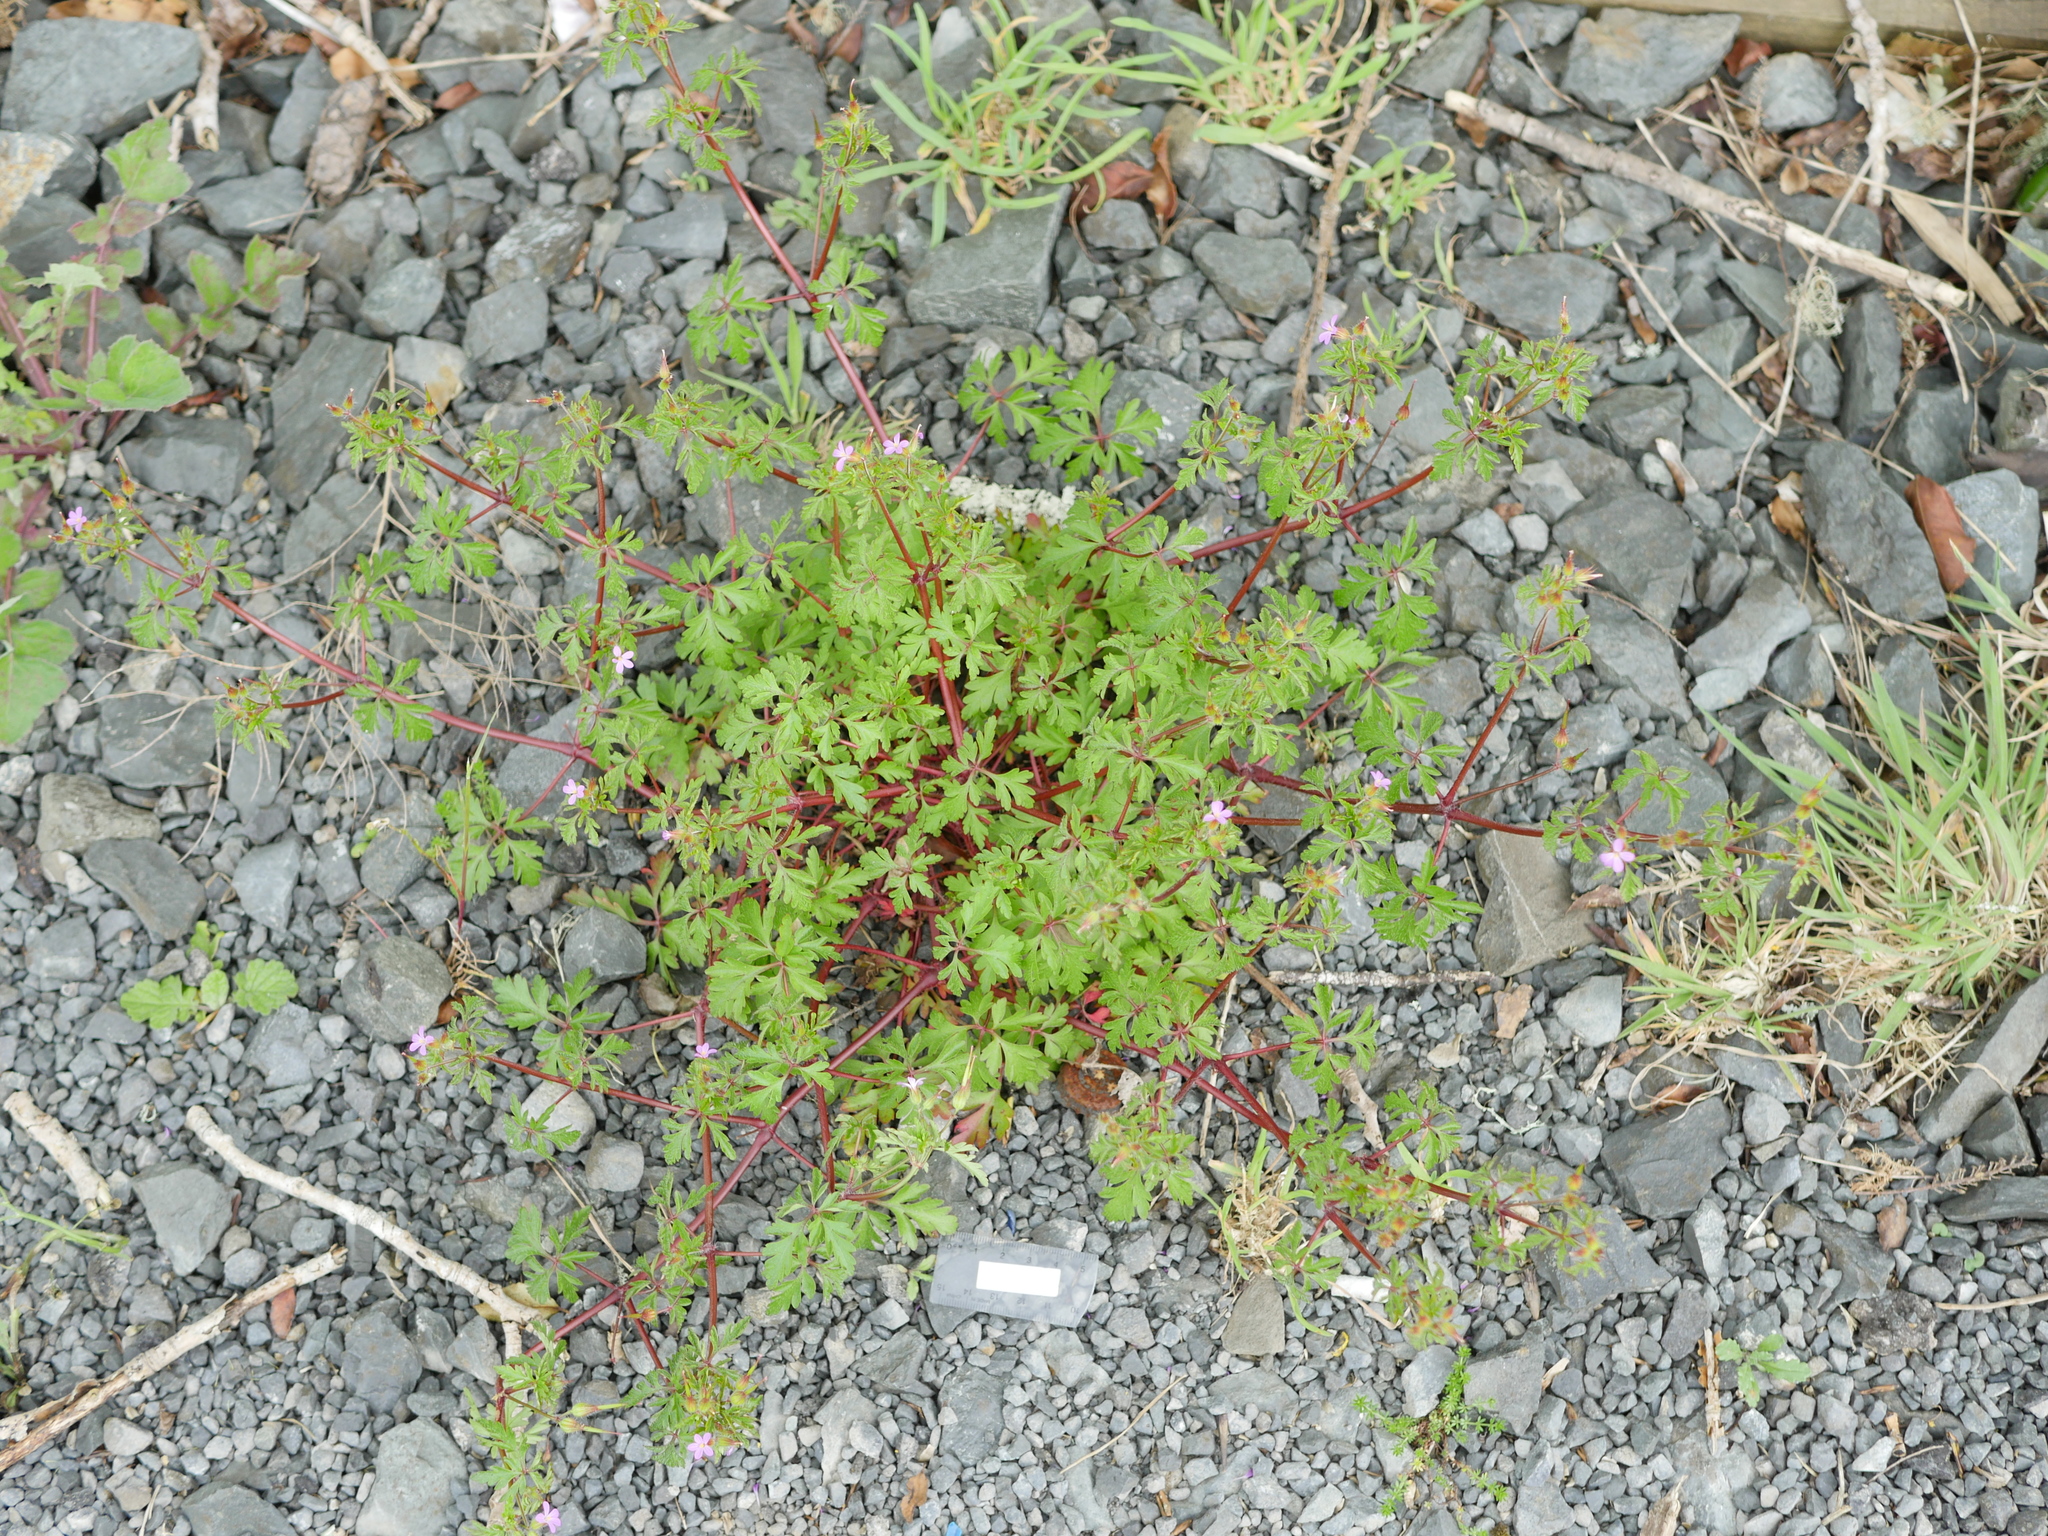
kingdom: Plantae
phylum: Tracheophyta
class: Magnoliopsida
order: Geraniales
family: Geraniaceae
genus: Geranium
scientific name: Geranium purpureum
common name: Little-robin
